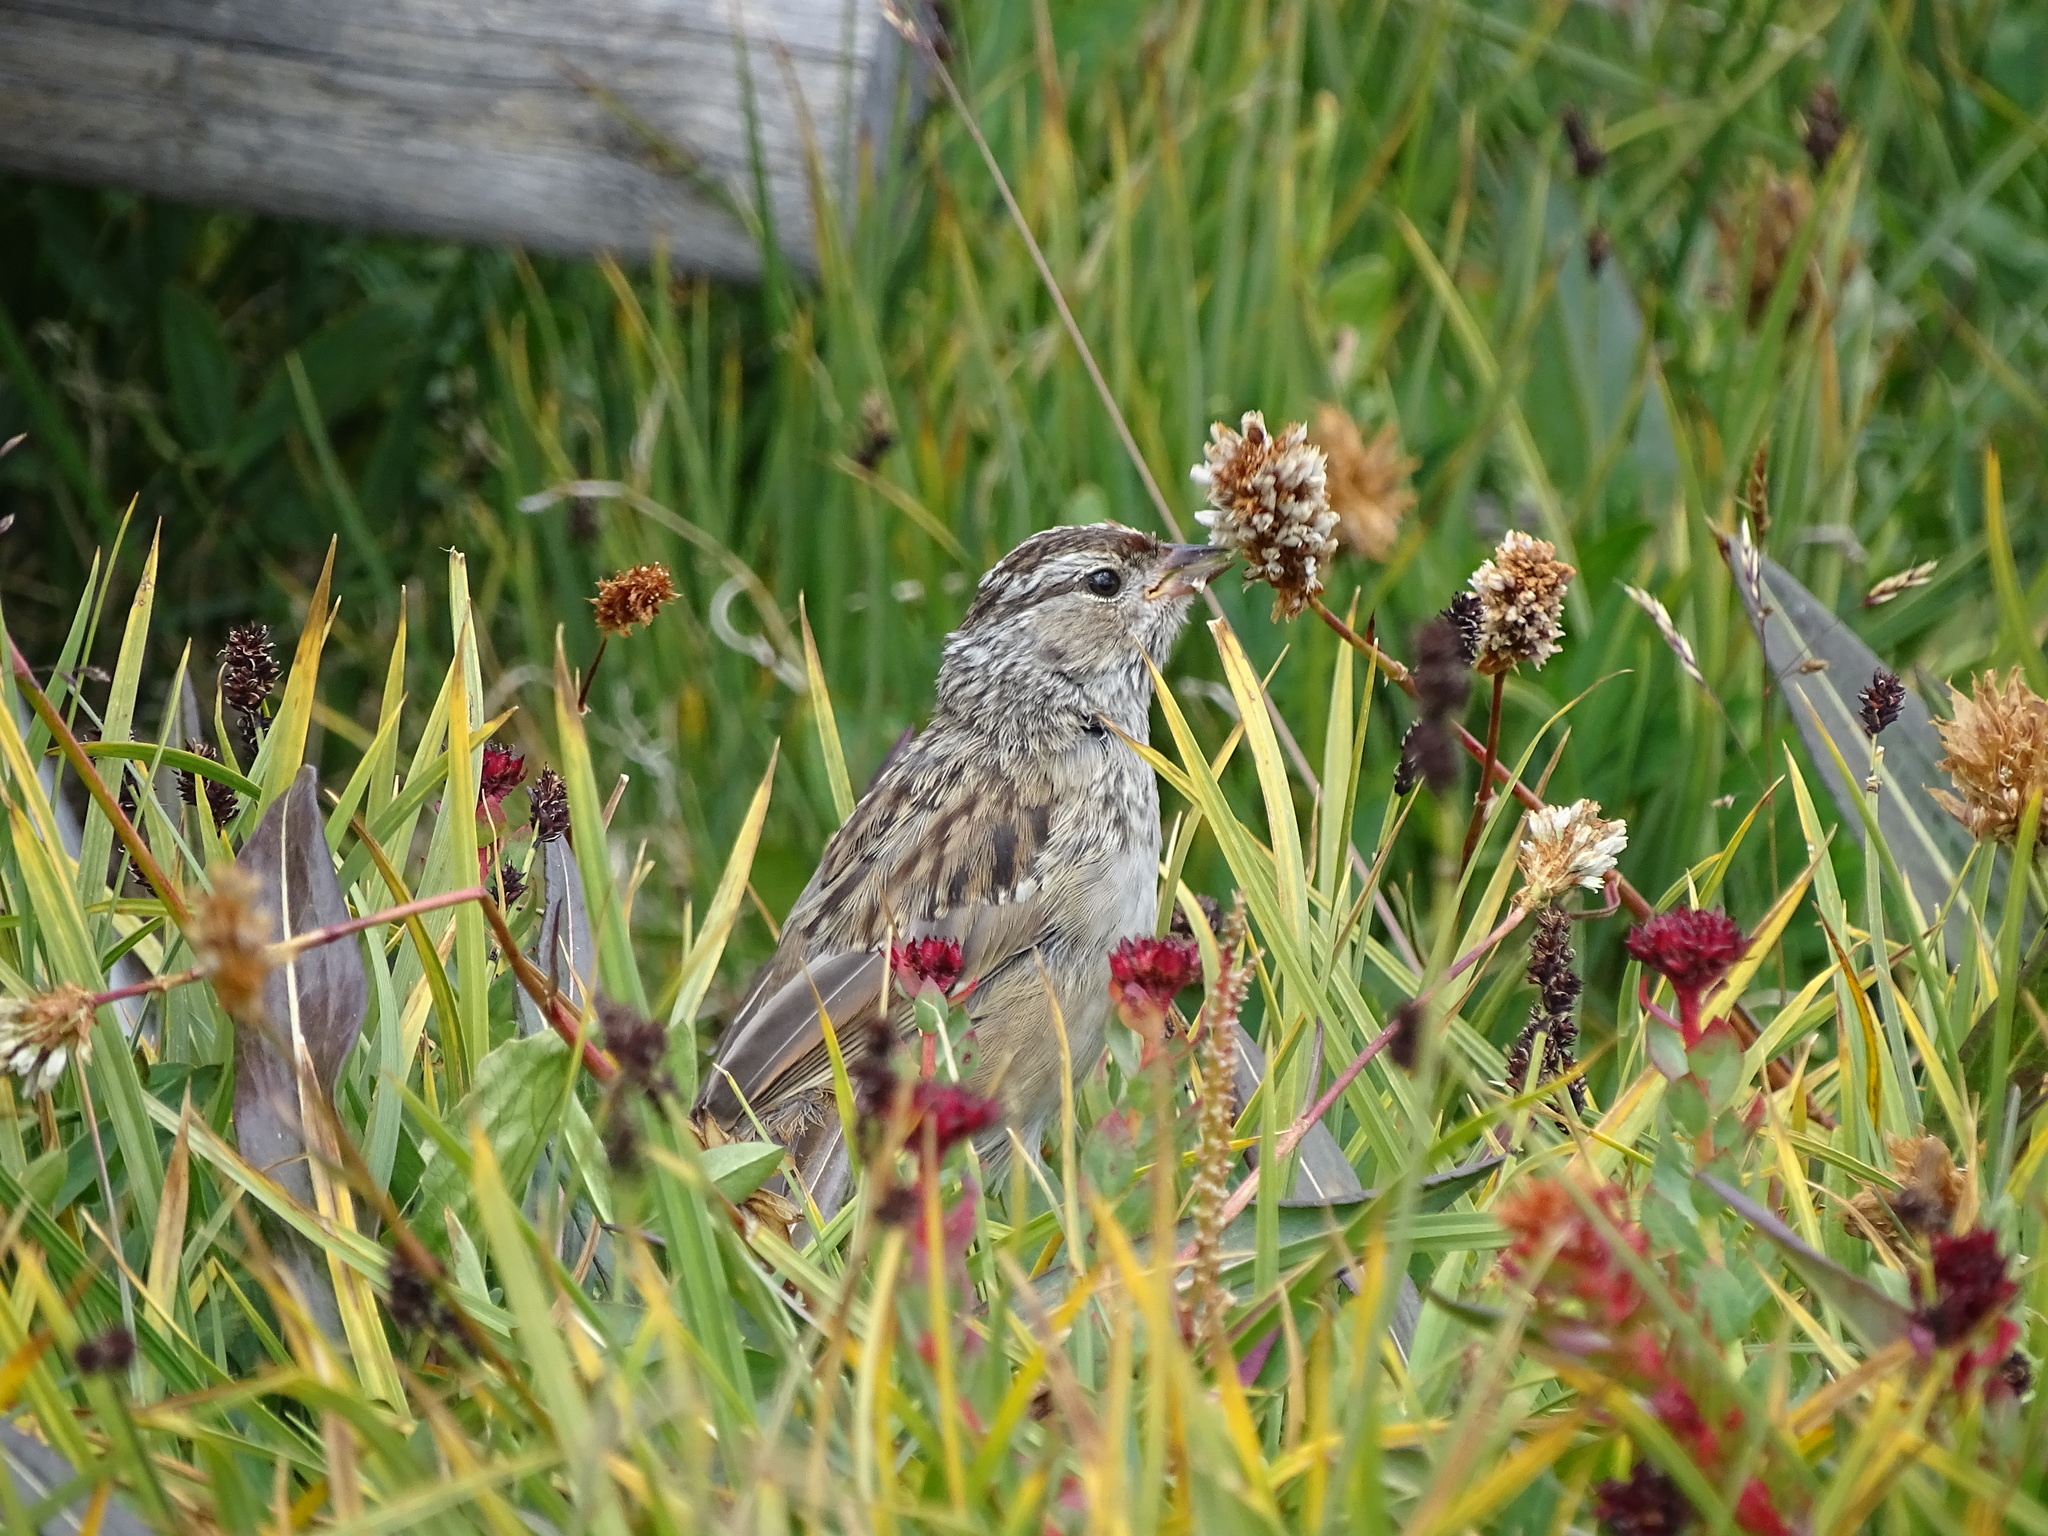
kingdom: Animalia
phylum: Chordata
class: Aves
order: Passeriformes
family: Passerellidae
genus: Zonotrichia
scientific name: Zonotrichia leucophrys
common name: White-crowned sparrow
